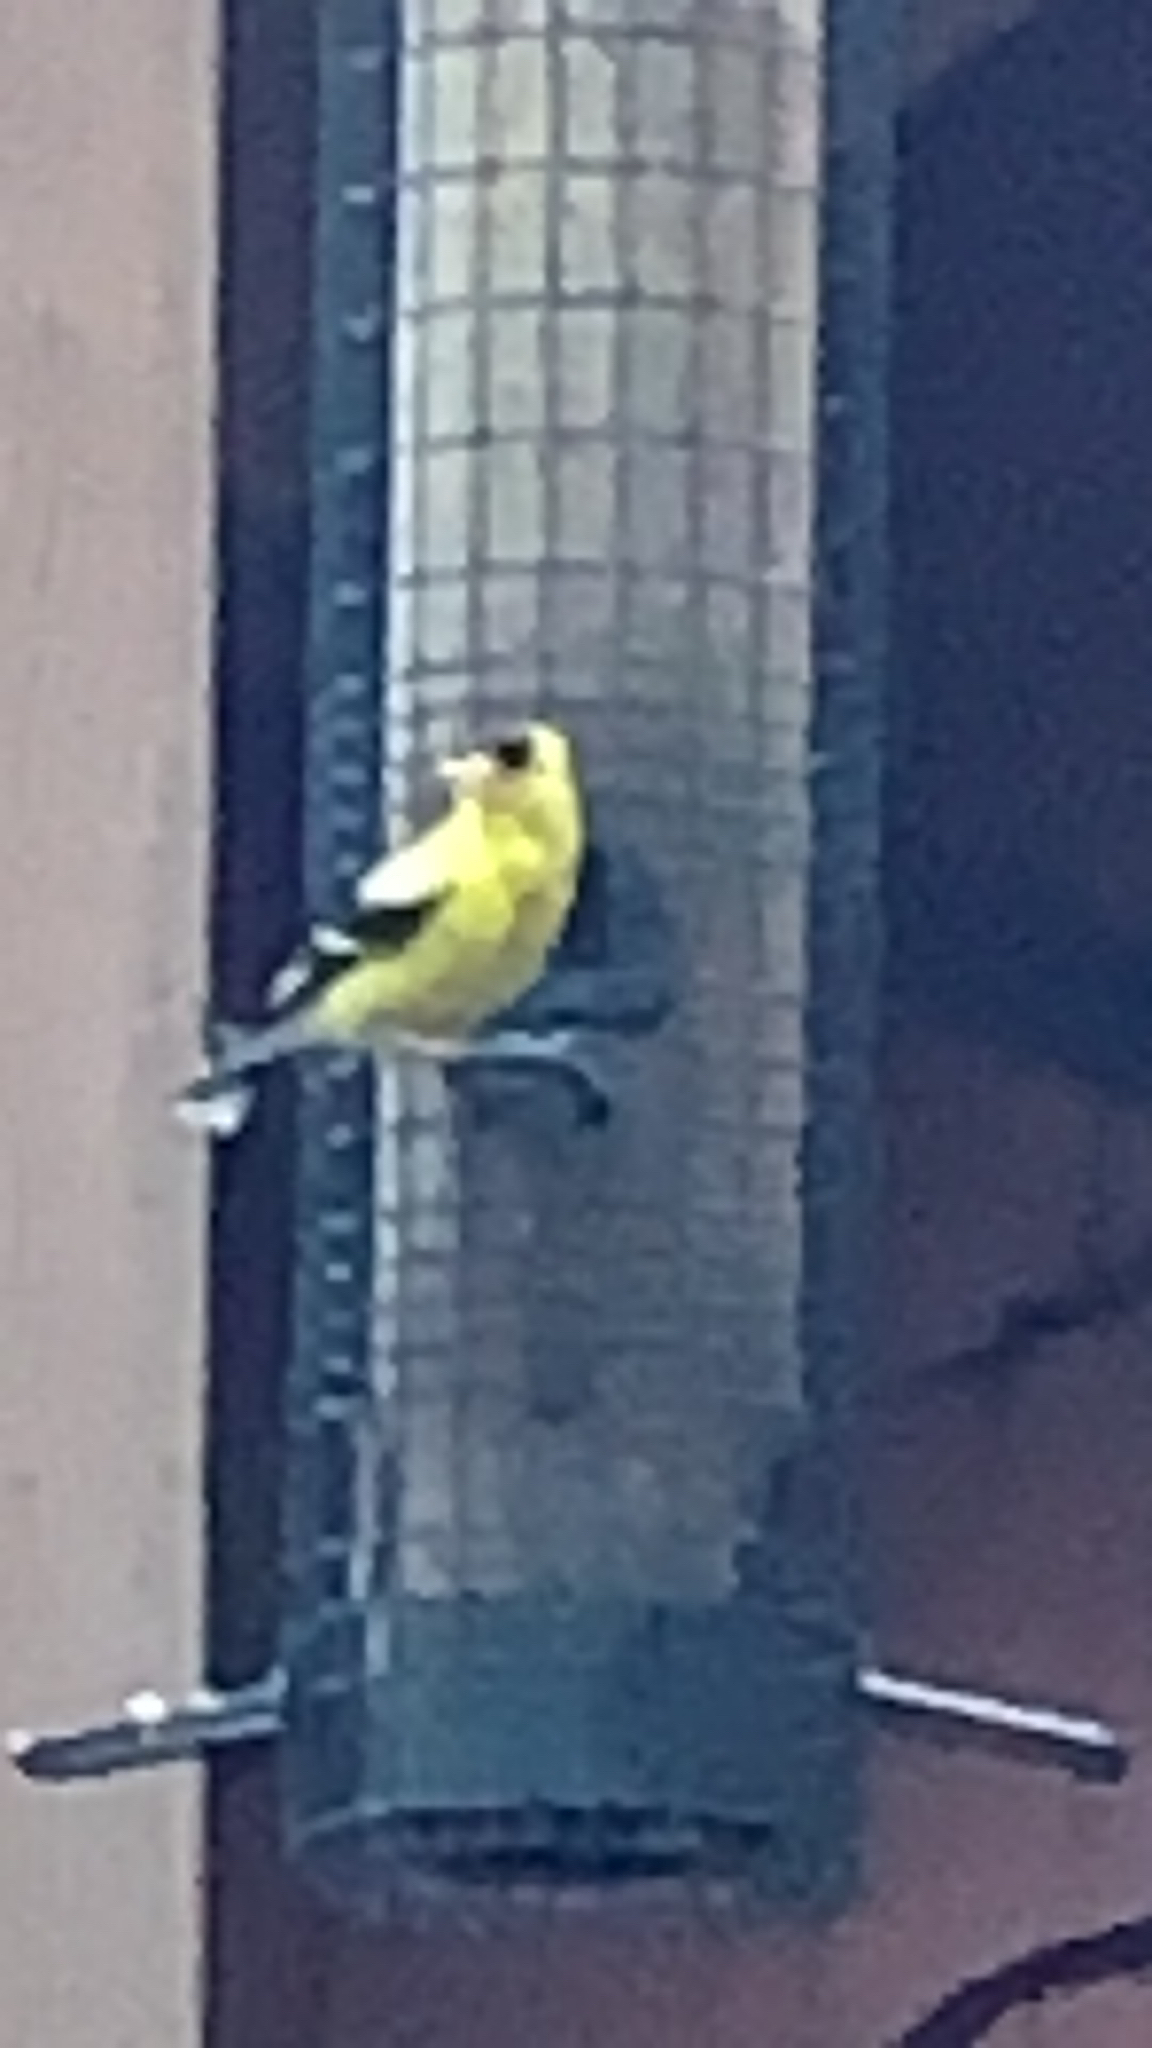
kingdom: Animalia
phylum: Chordata
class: Aves
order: Passeriformes
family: Fringillidae
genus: Spinus
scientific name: Spinus tristis
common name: American goldfinch
